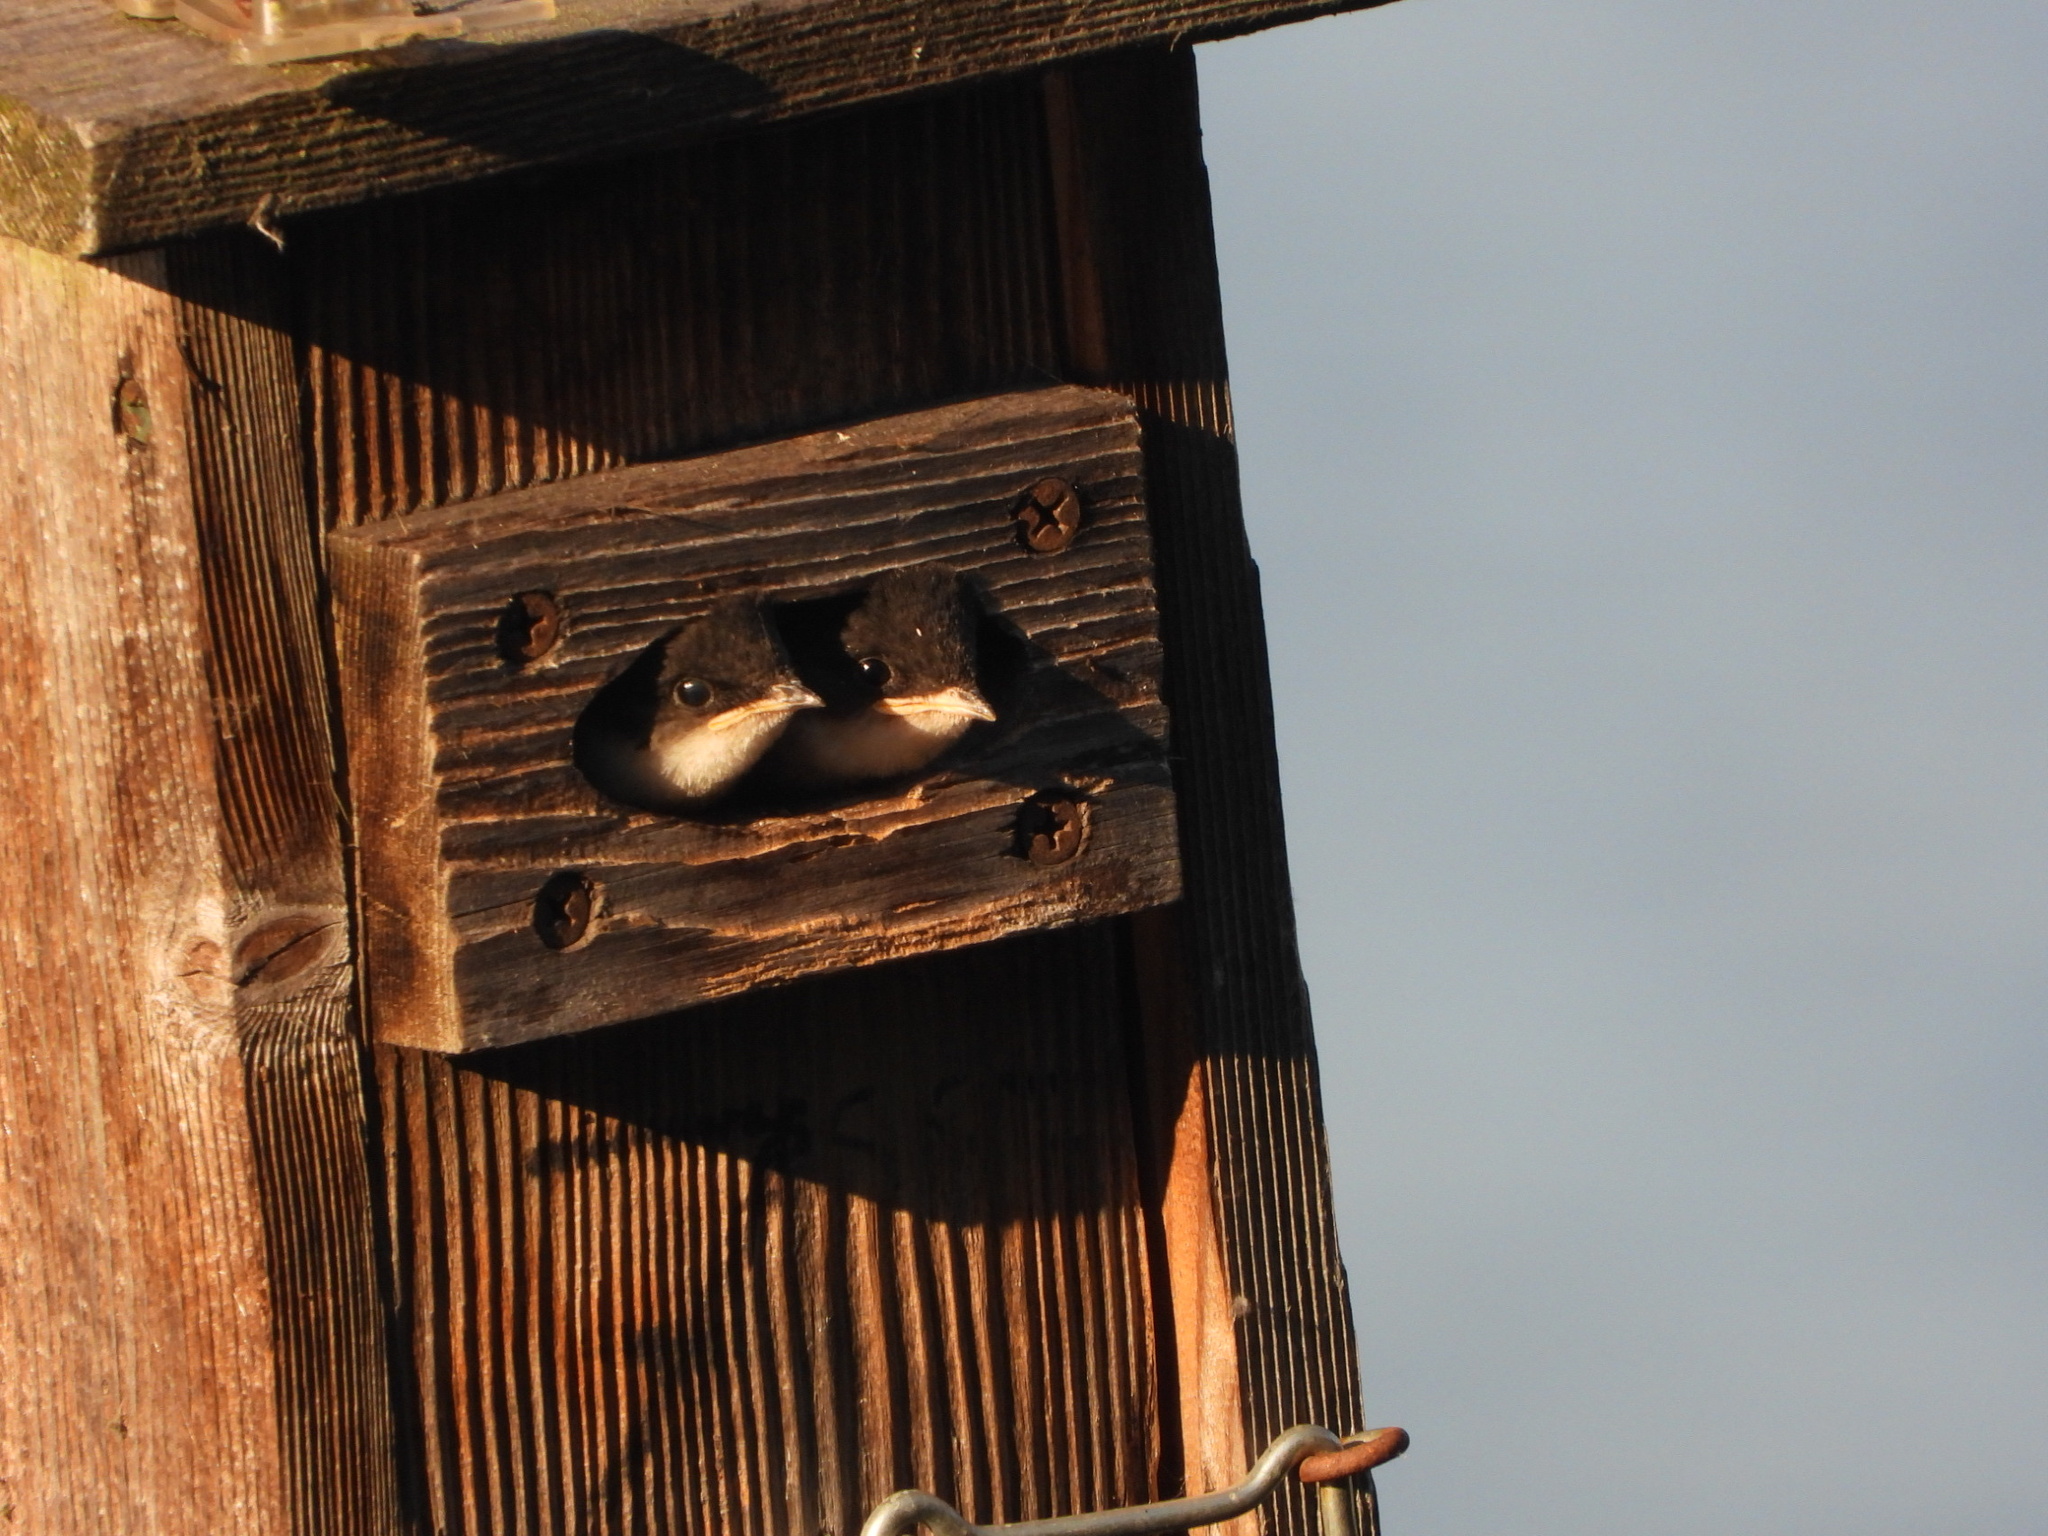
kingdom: Animalia
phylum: Chordata
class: Aves
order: Passeriformes
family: Hirundinidae
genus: Tachycineta
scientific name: Tachycineta bicolor
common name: Tree swallow
